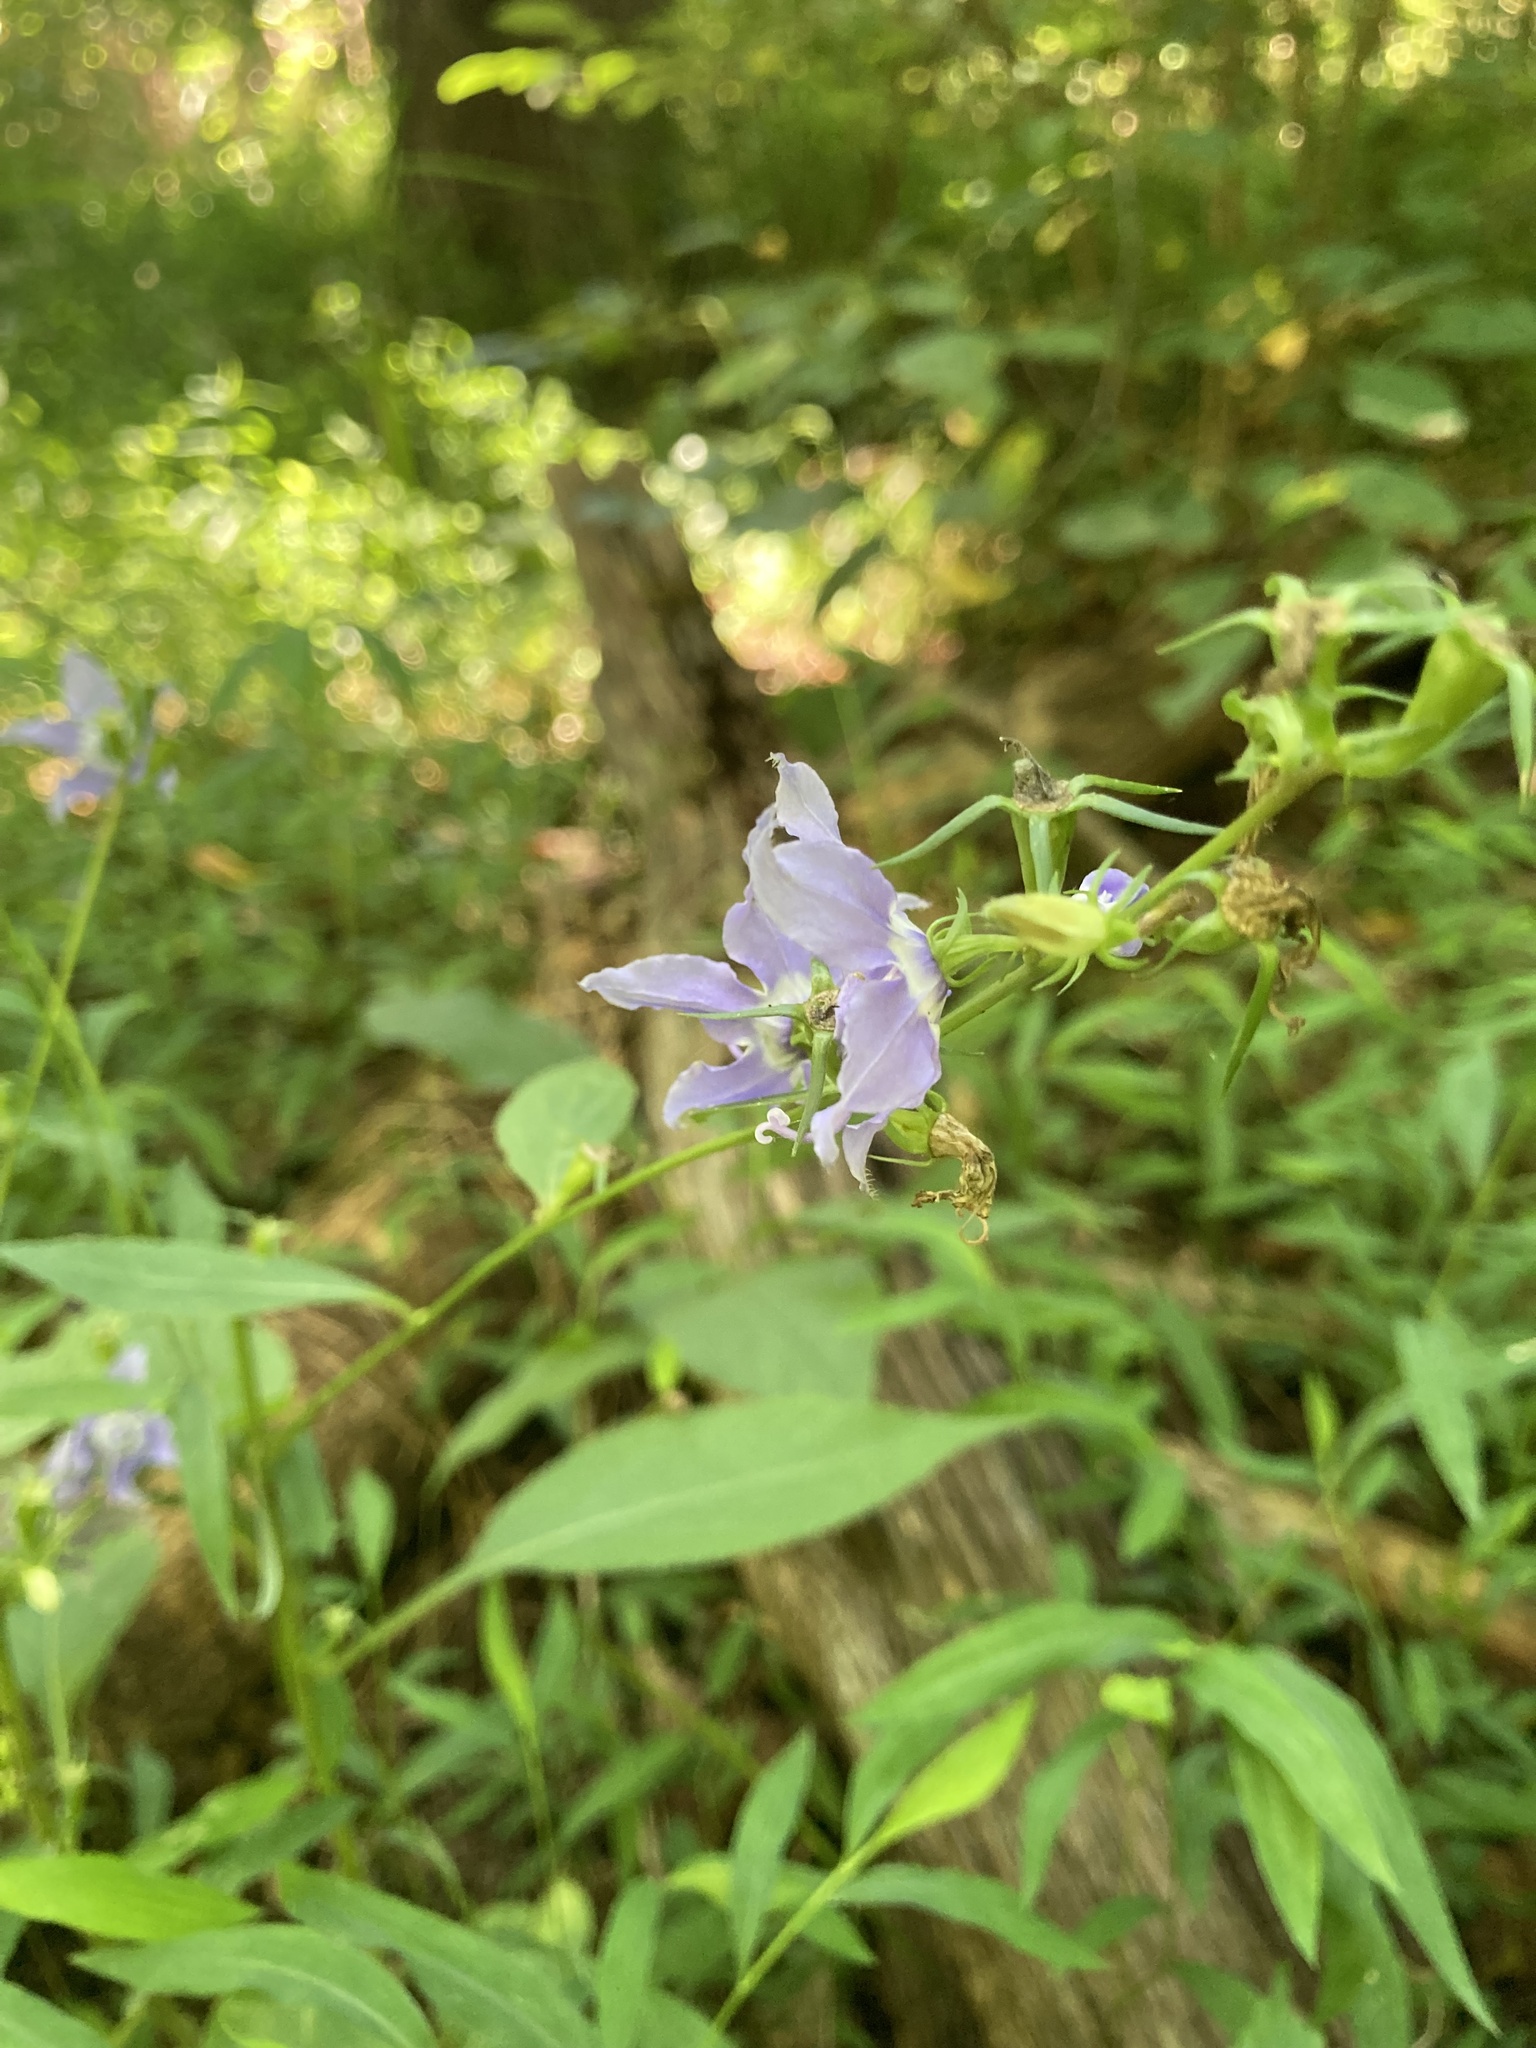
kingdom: Plantae
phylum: Tracheophyta
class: Magnoliopsida
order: Asterales
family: Campanulaceae
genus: Campanulastrum
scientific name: Campanulastrum americanum
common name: American bellflower
